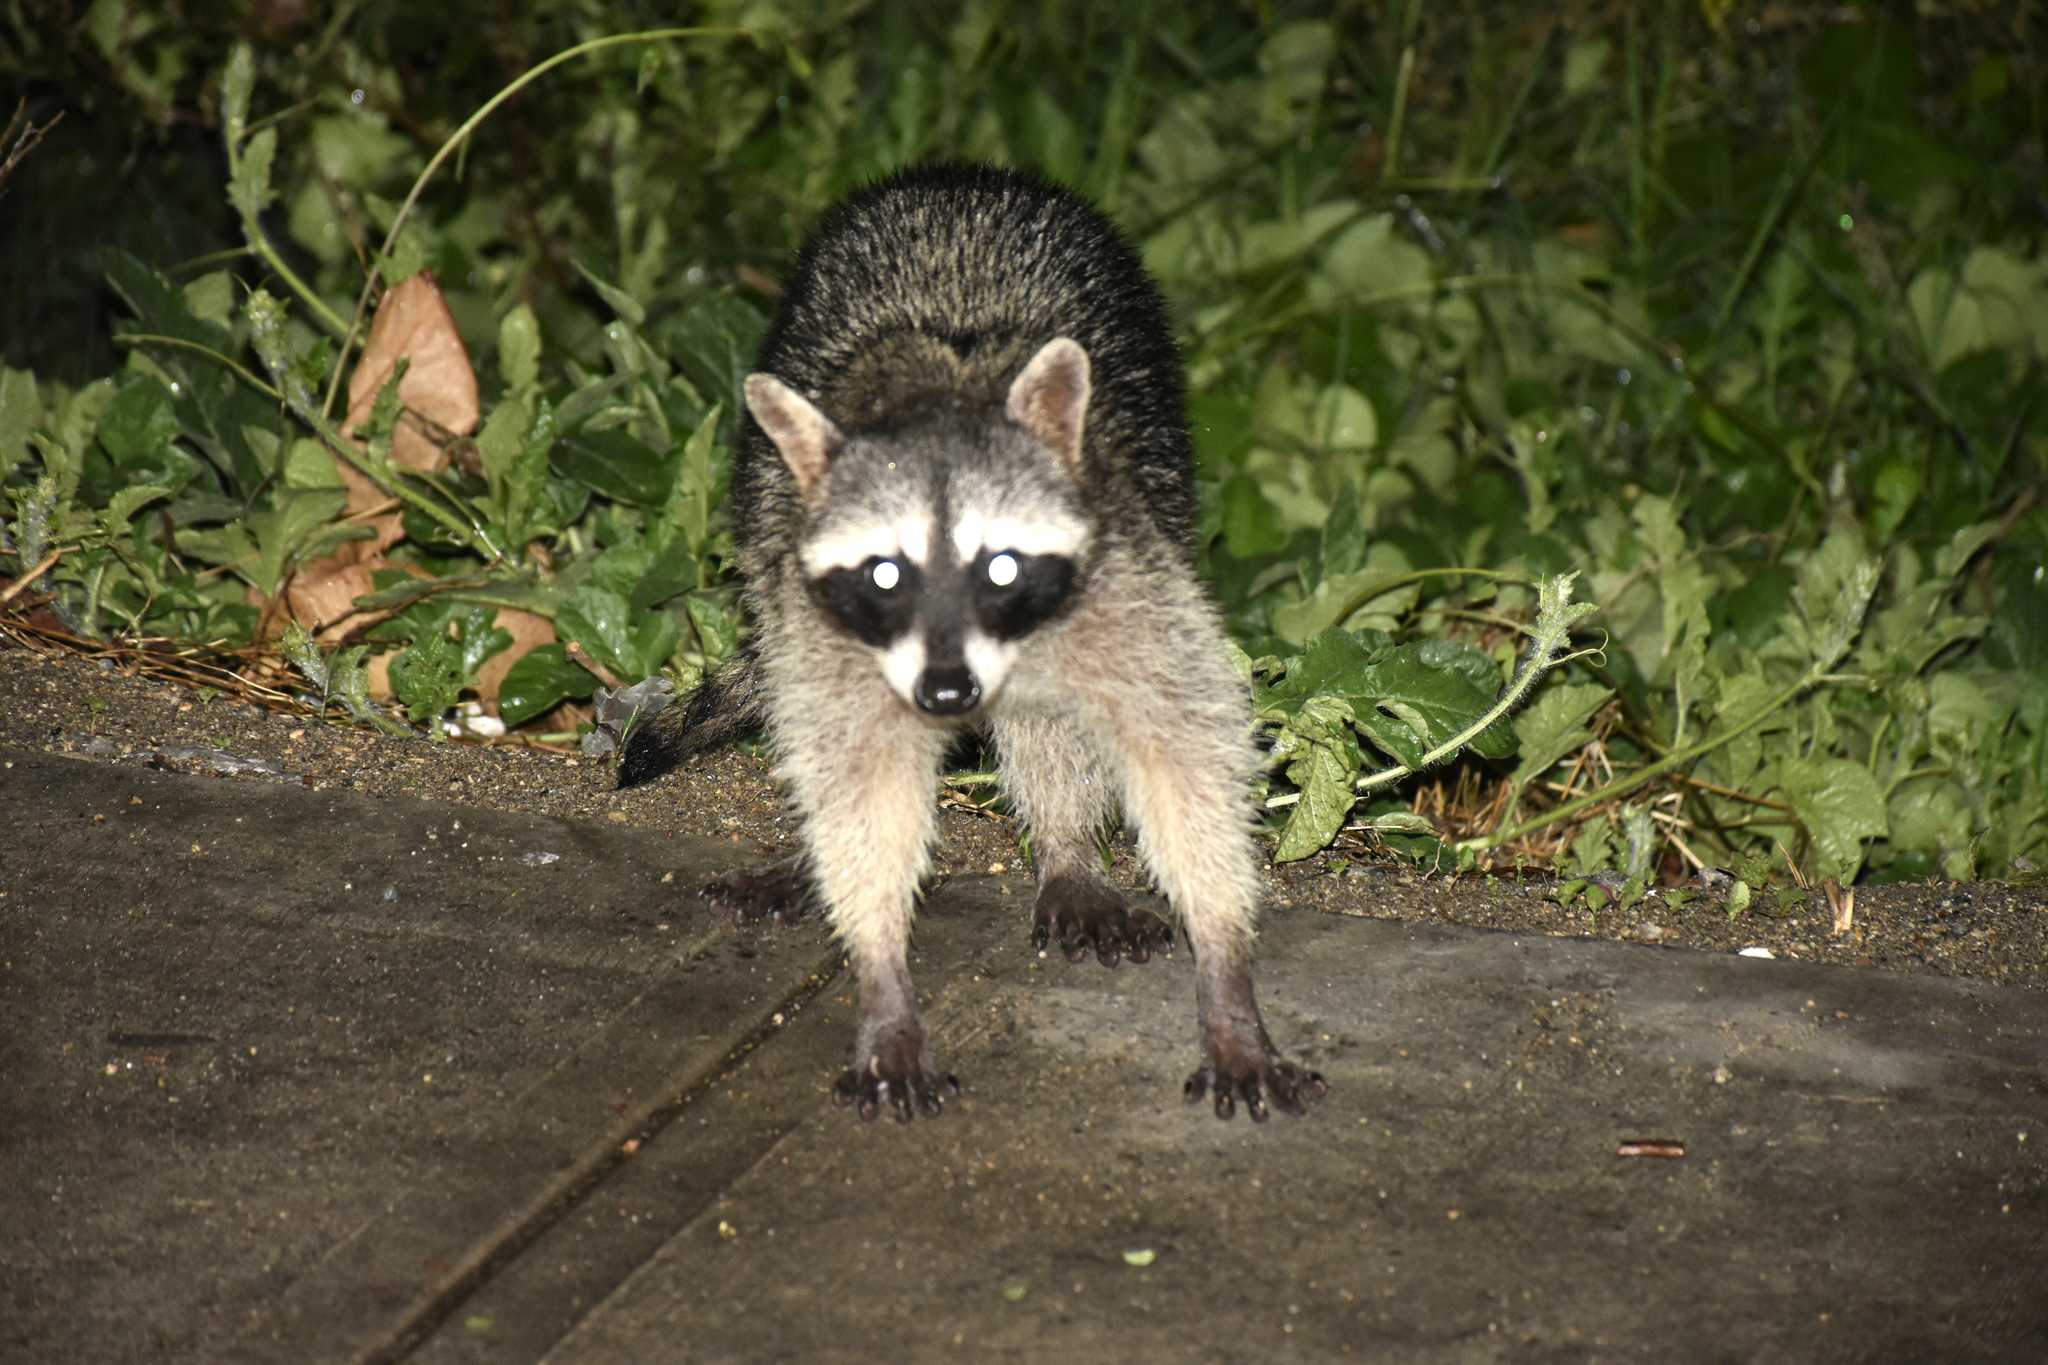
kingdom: Animalia
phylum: Chordata
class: Mammalia
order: Carnivora
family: Procyonidae
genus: Procyon
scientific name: Procyon lotor
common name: Raccoon
